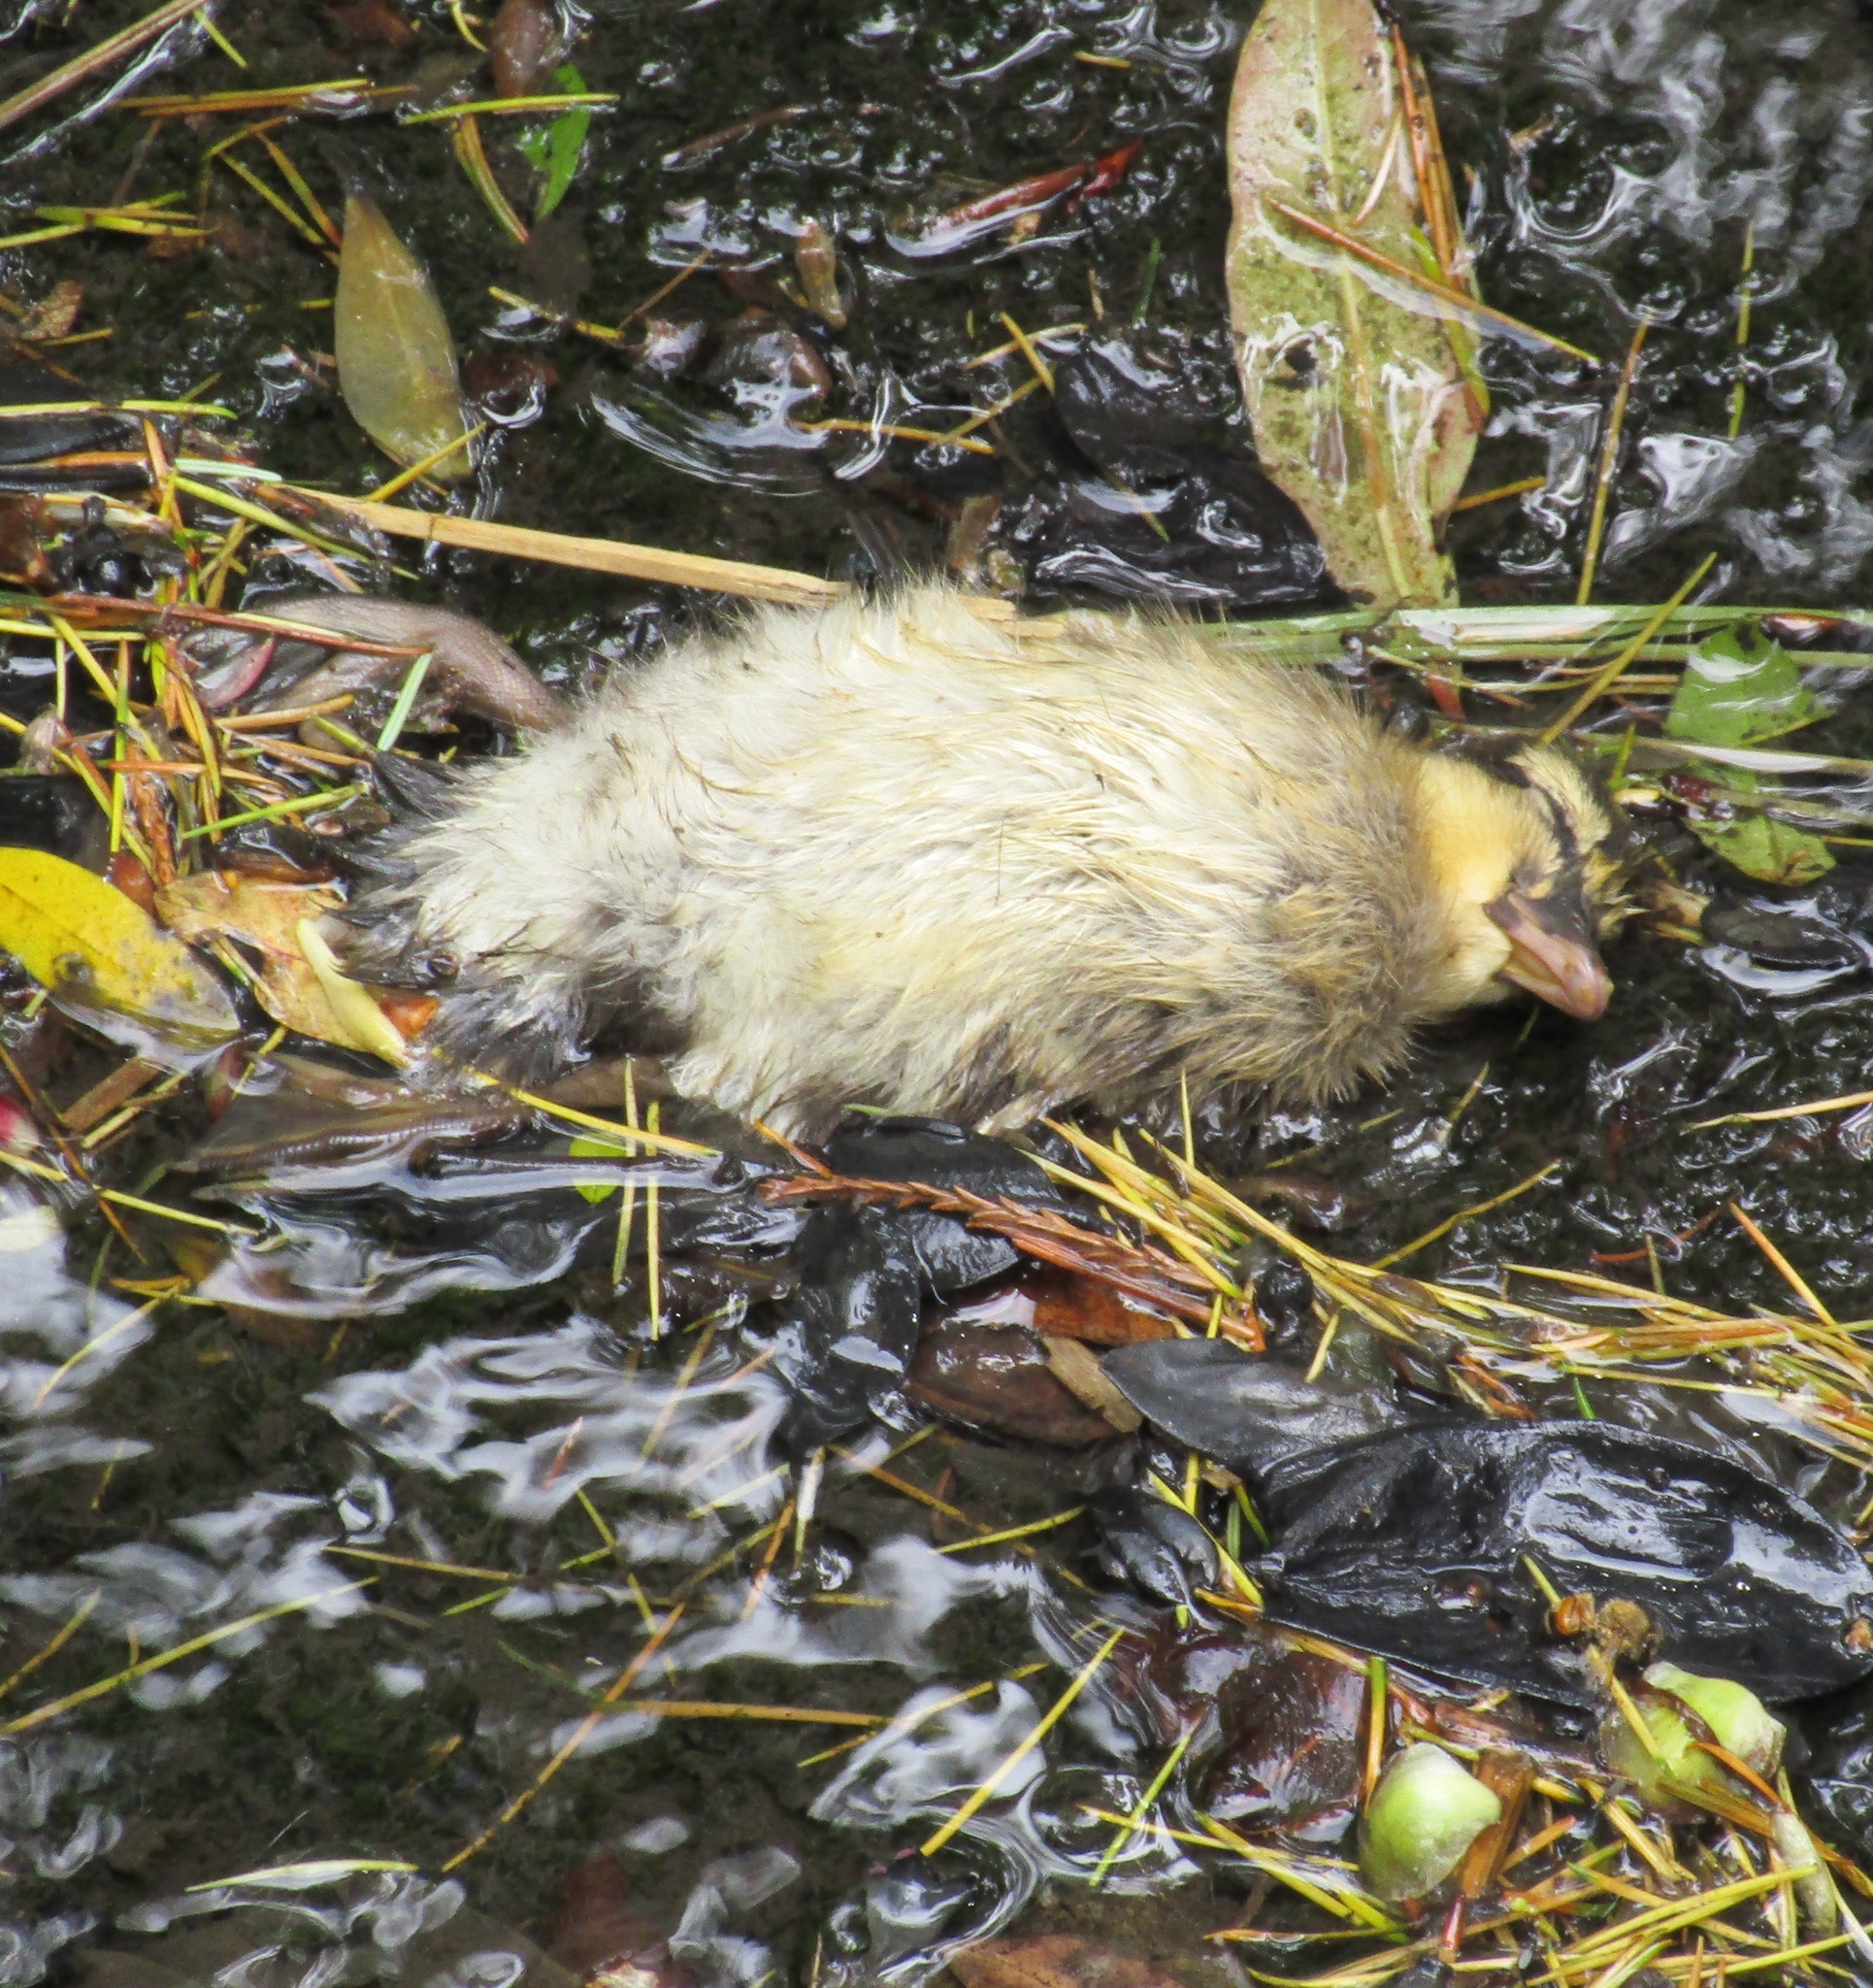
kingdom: Animalia
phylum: Chordata
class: Aves
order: Anseriformes
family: Anatidae
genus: Anas
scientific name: Anas
